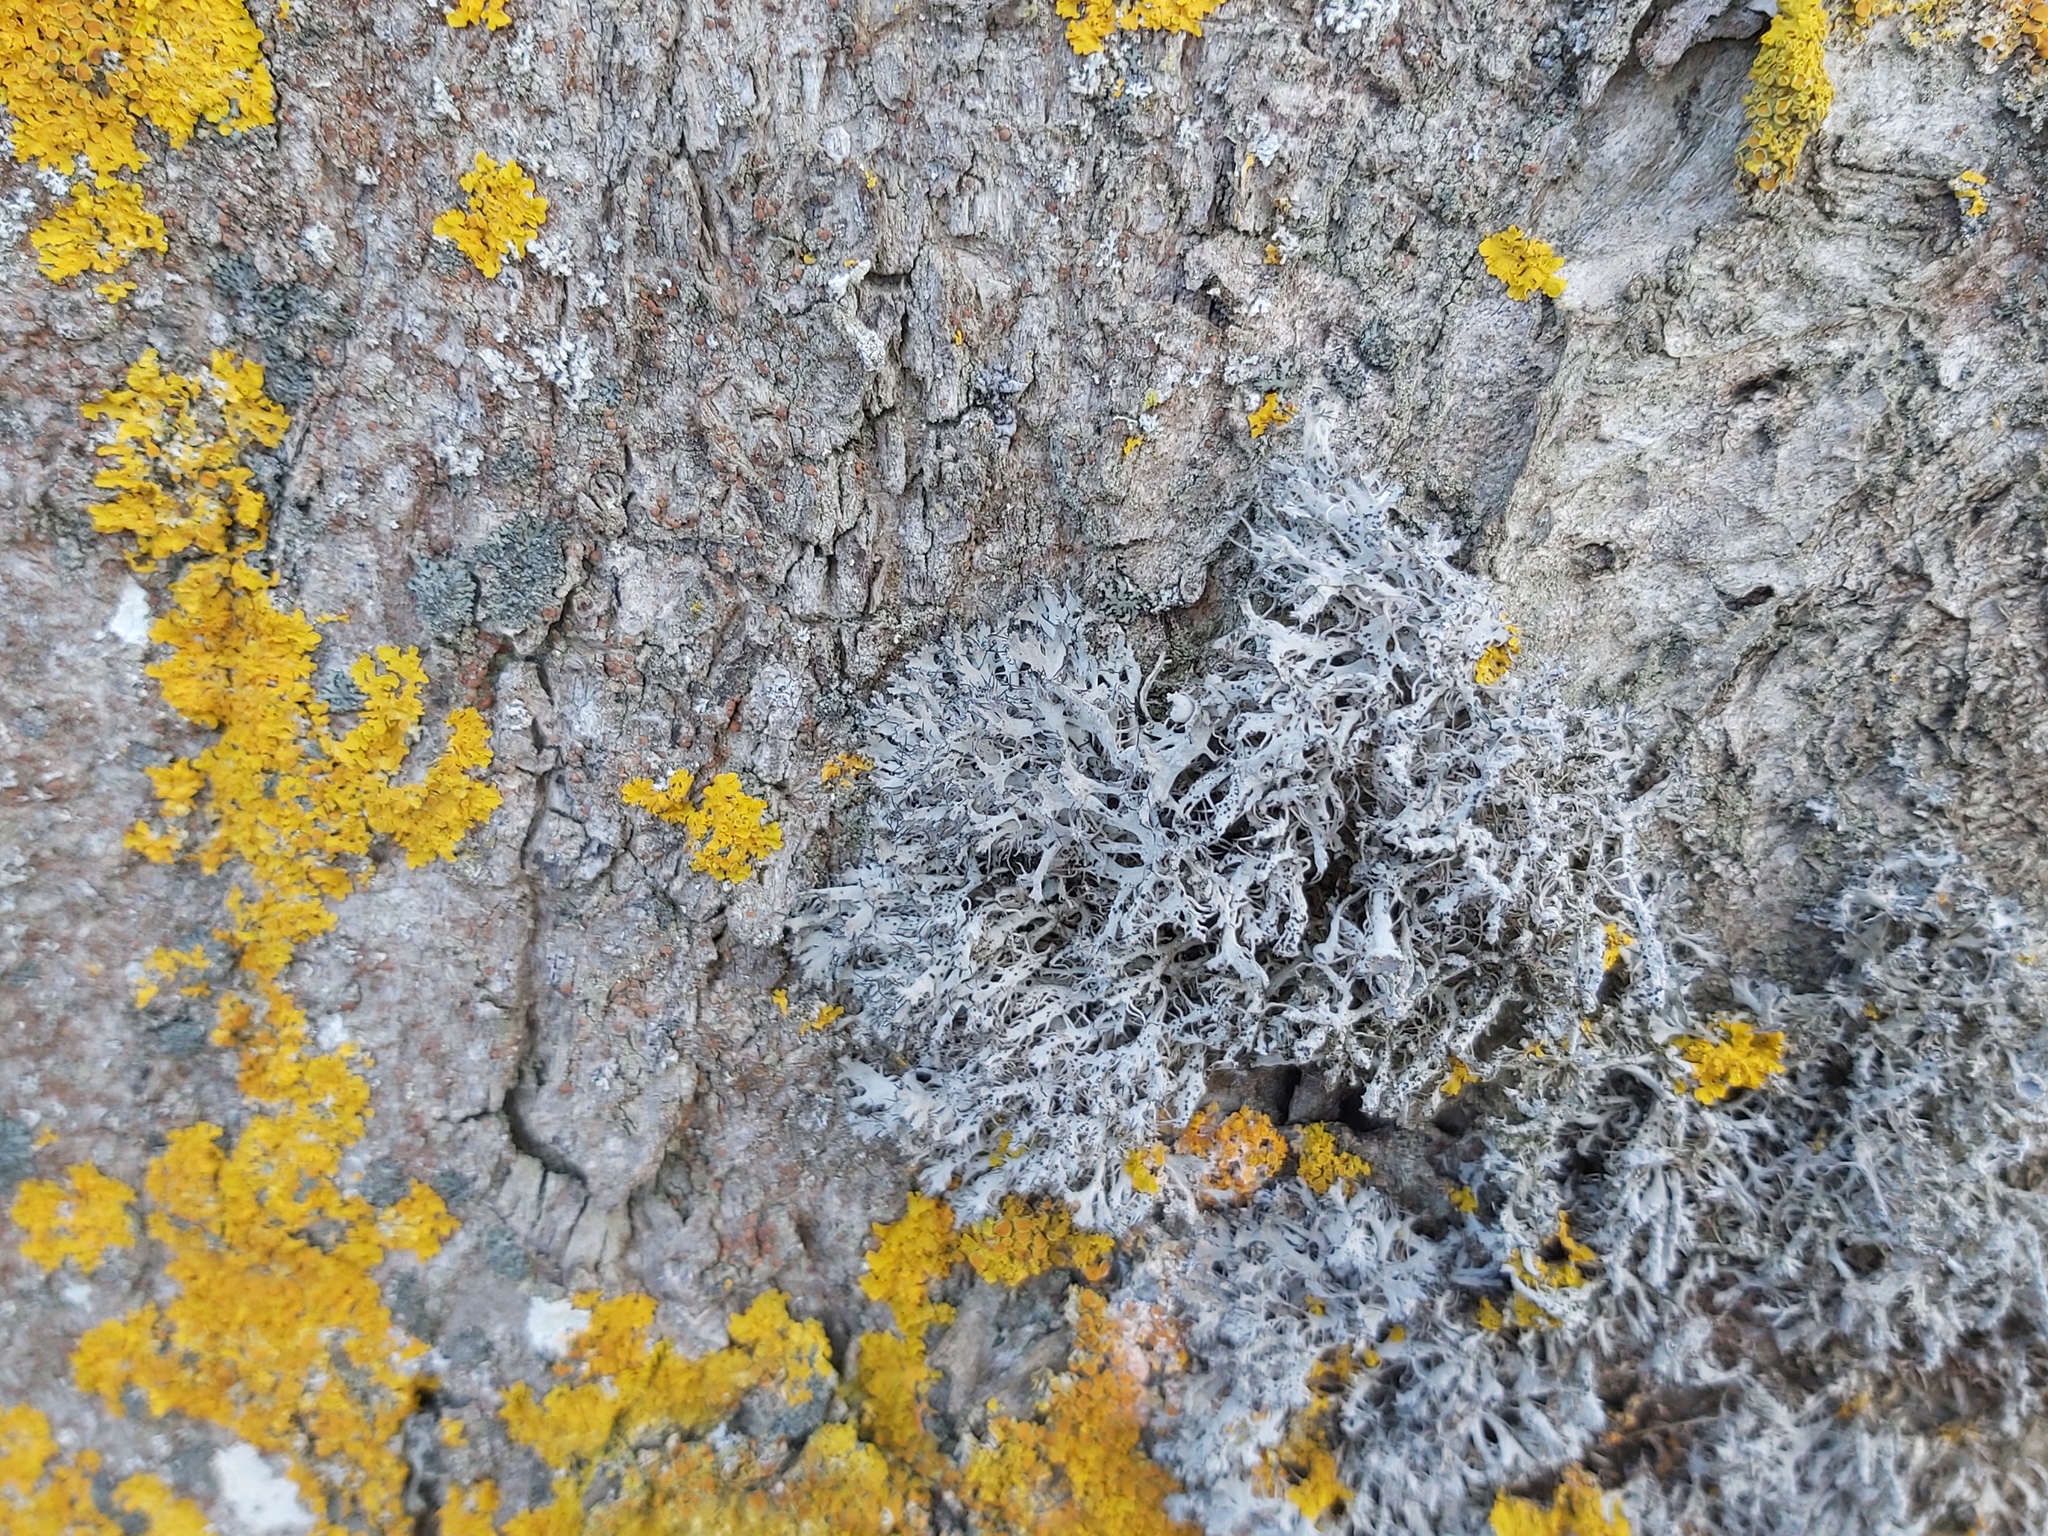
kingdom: Fungi
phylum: Ascomycota
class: Lecanoromycetes
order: Caliciales
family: Physciaceae
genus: Anaptychia
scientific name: Anaptychia ciliaris
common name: Great ciliated lichen
